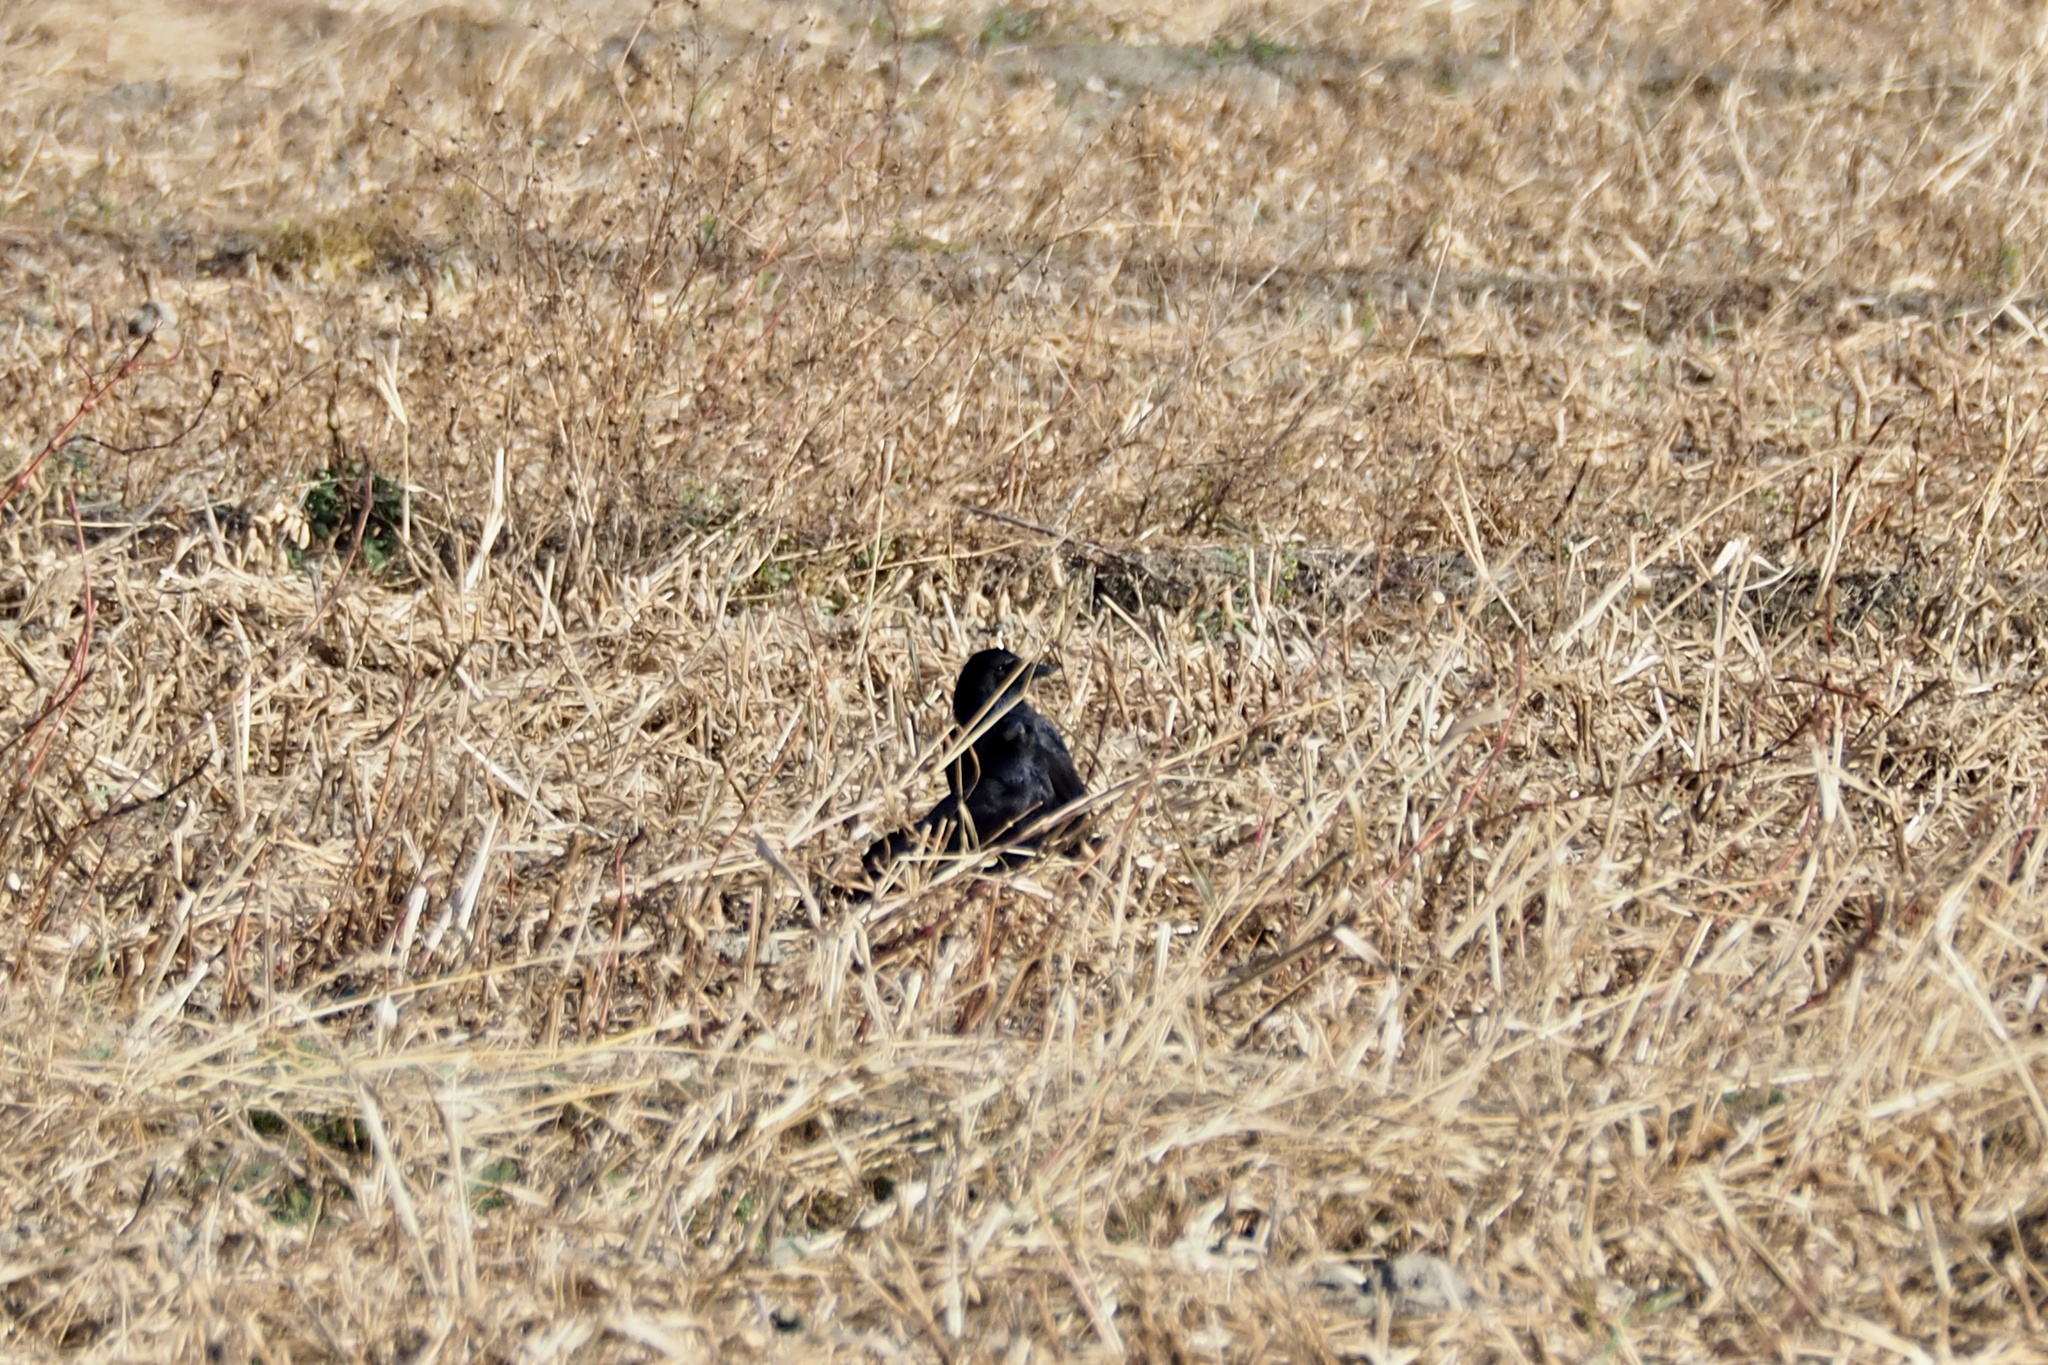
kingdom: Animalia
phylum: Chordata
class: Aves
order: Passeriformes
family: Corvidae
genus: Corvus
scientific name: Corvus frugilegus
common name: Rook
